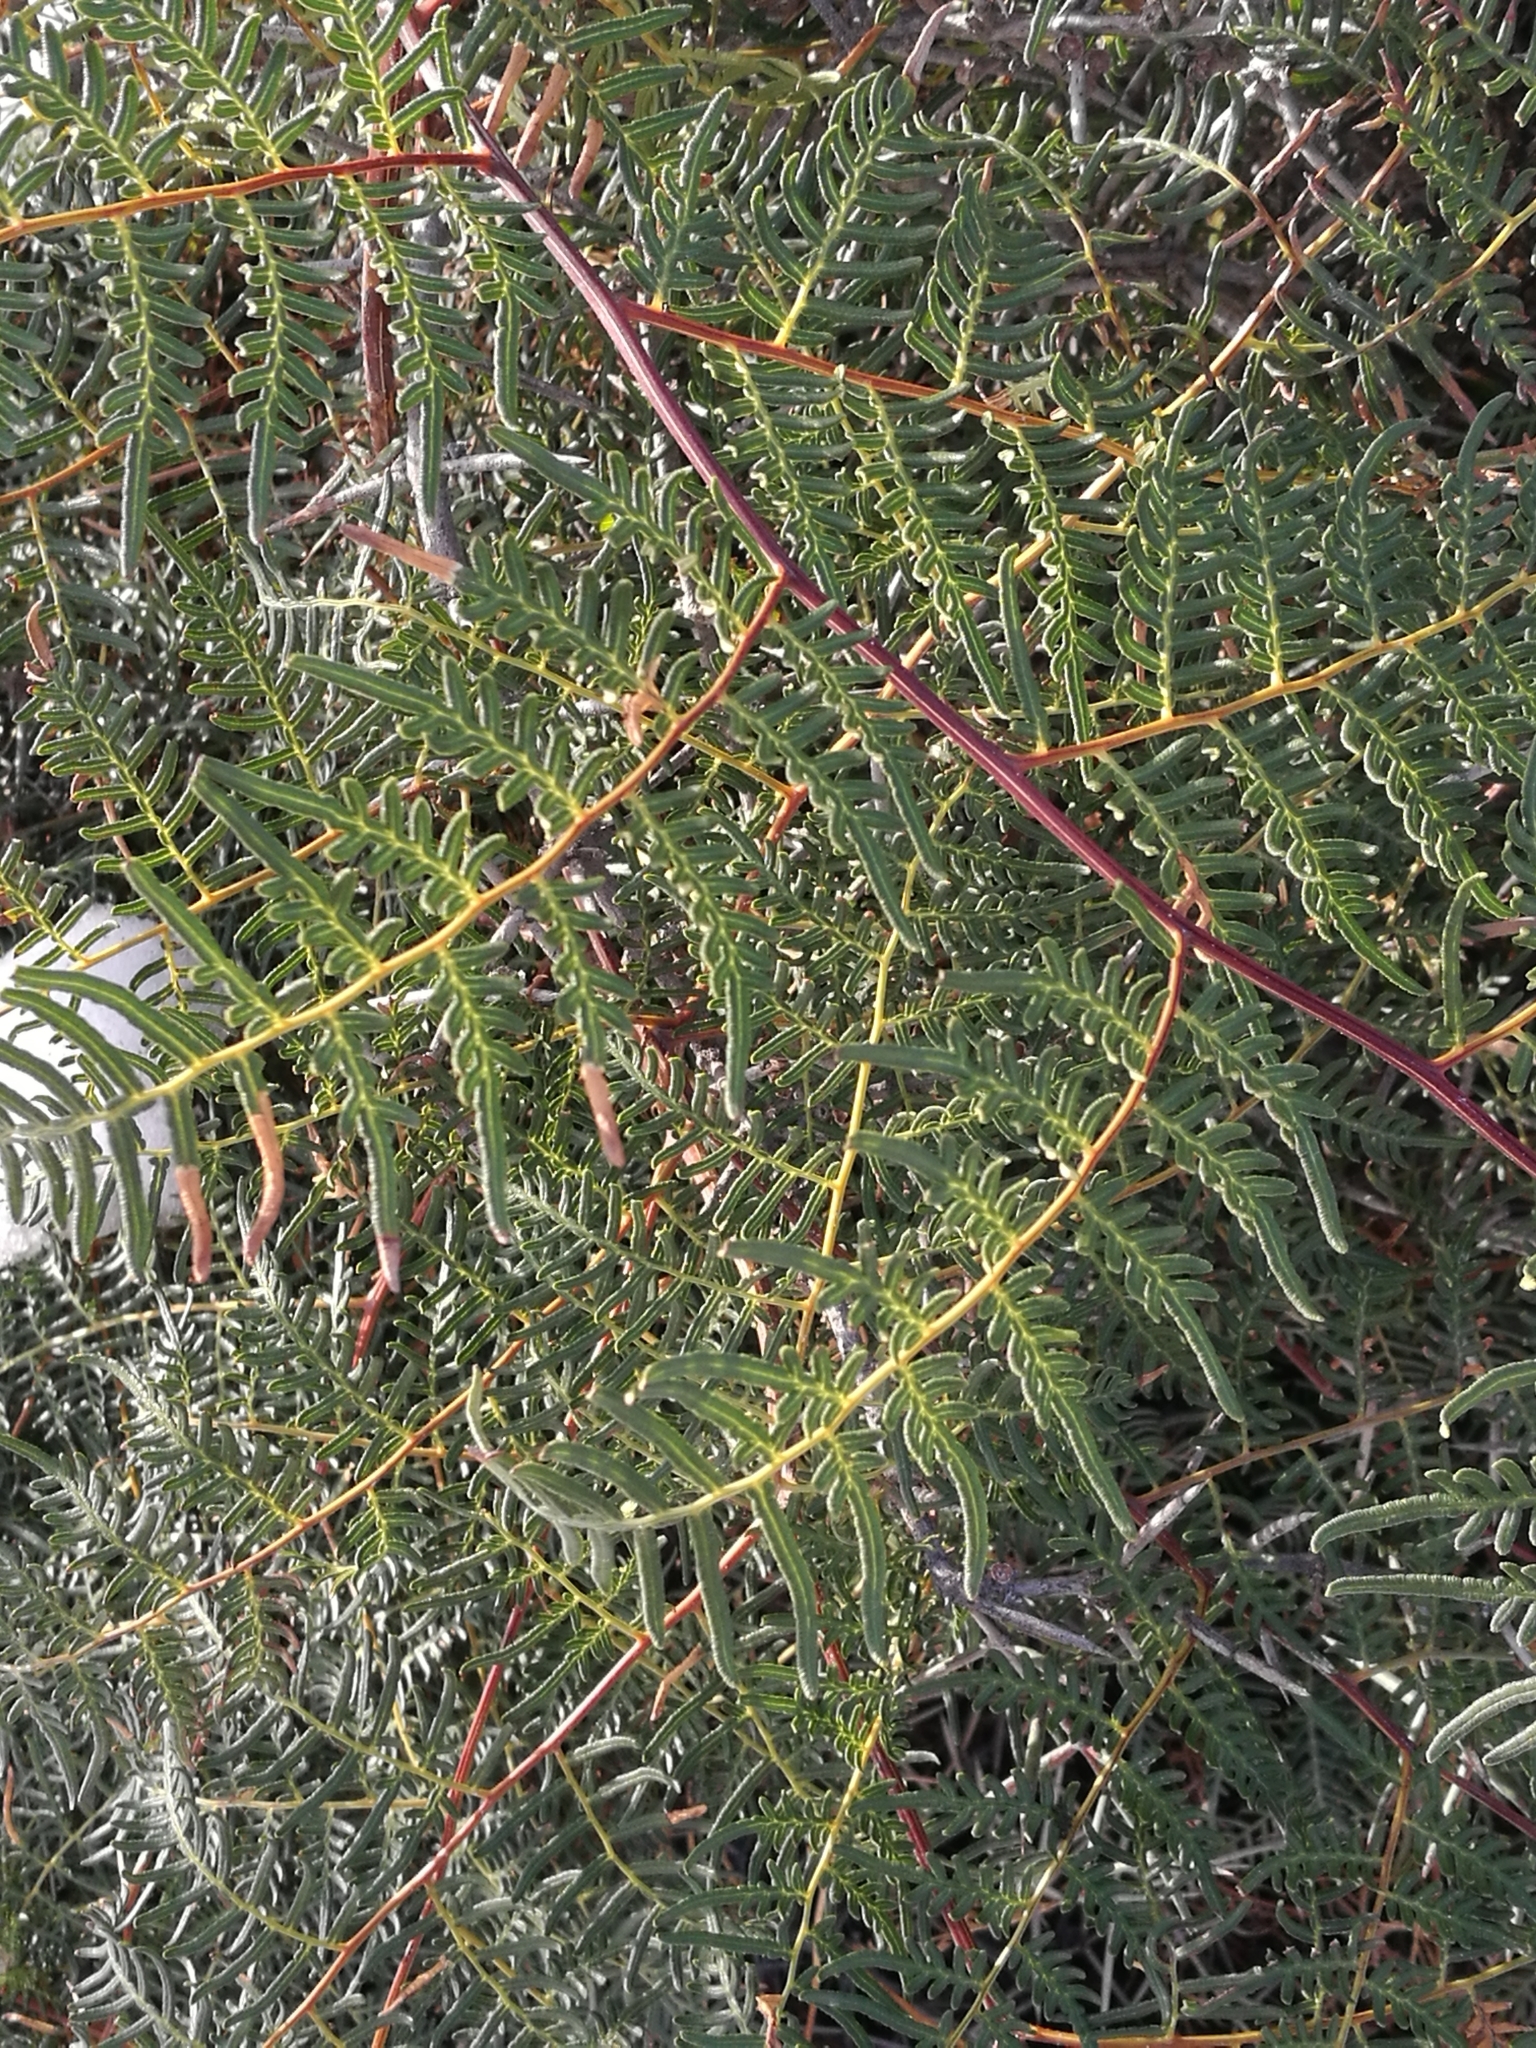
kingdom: Plantae
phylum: Tracheophyta
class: Polypodiopsida
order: Polypodiales
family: Dennstaedtiaceae
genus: Pteridium
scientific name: Pteridium esculentum
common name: Bracken fern
